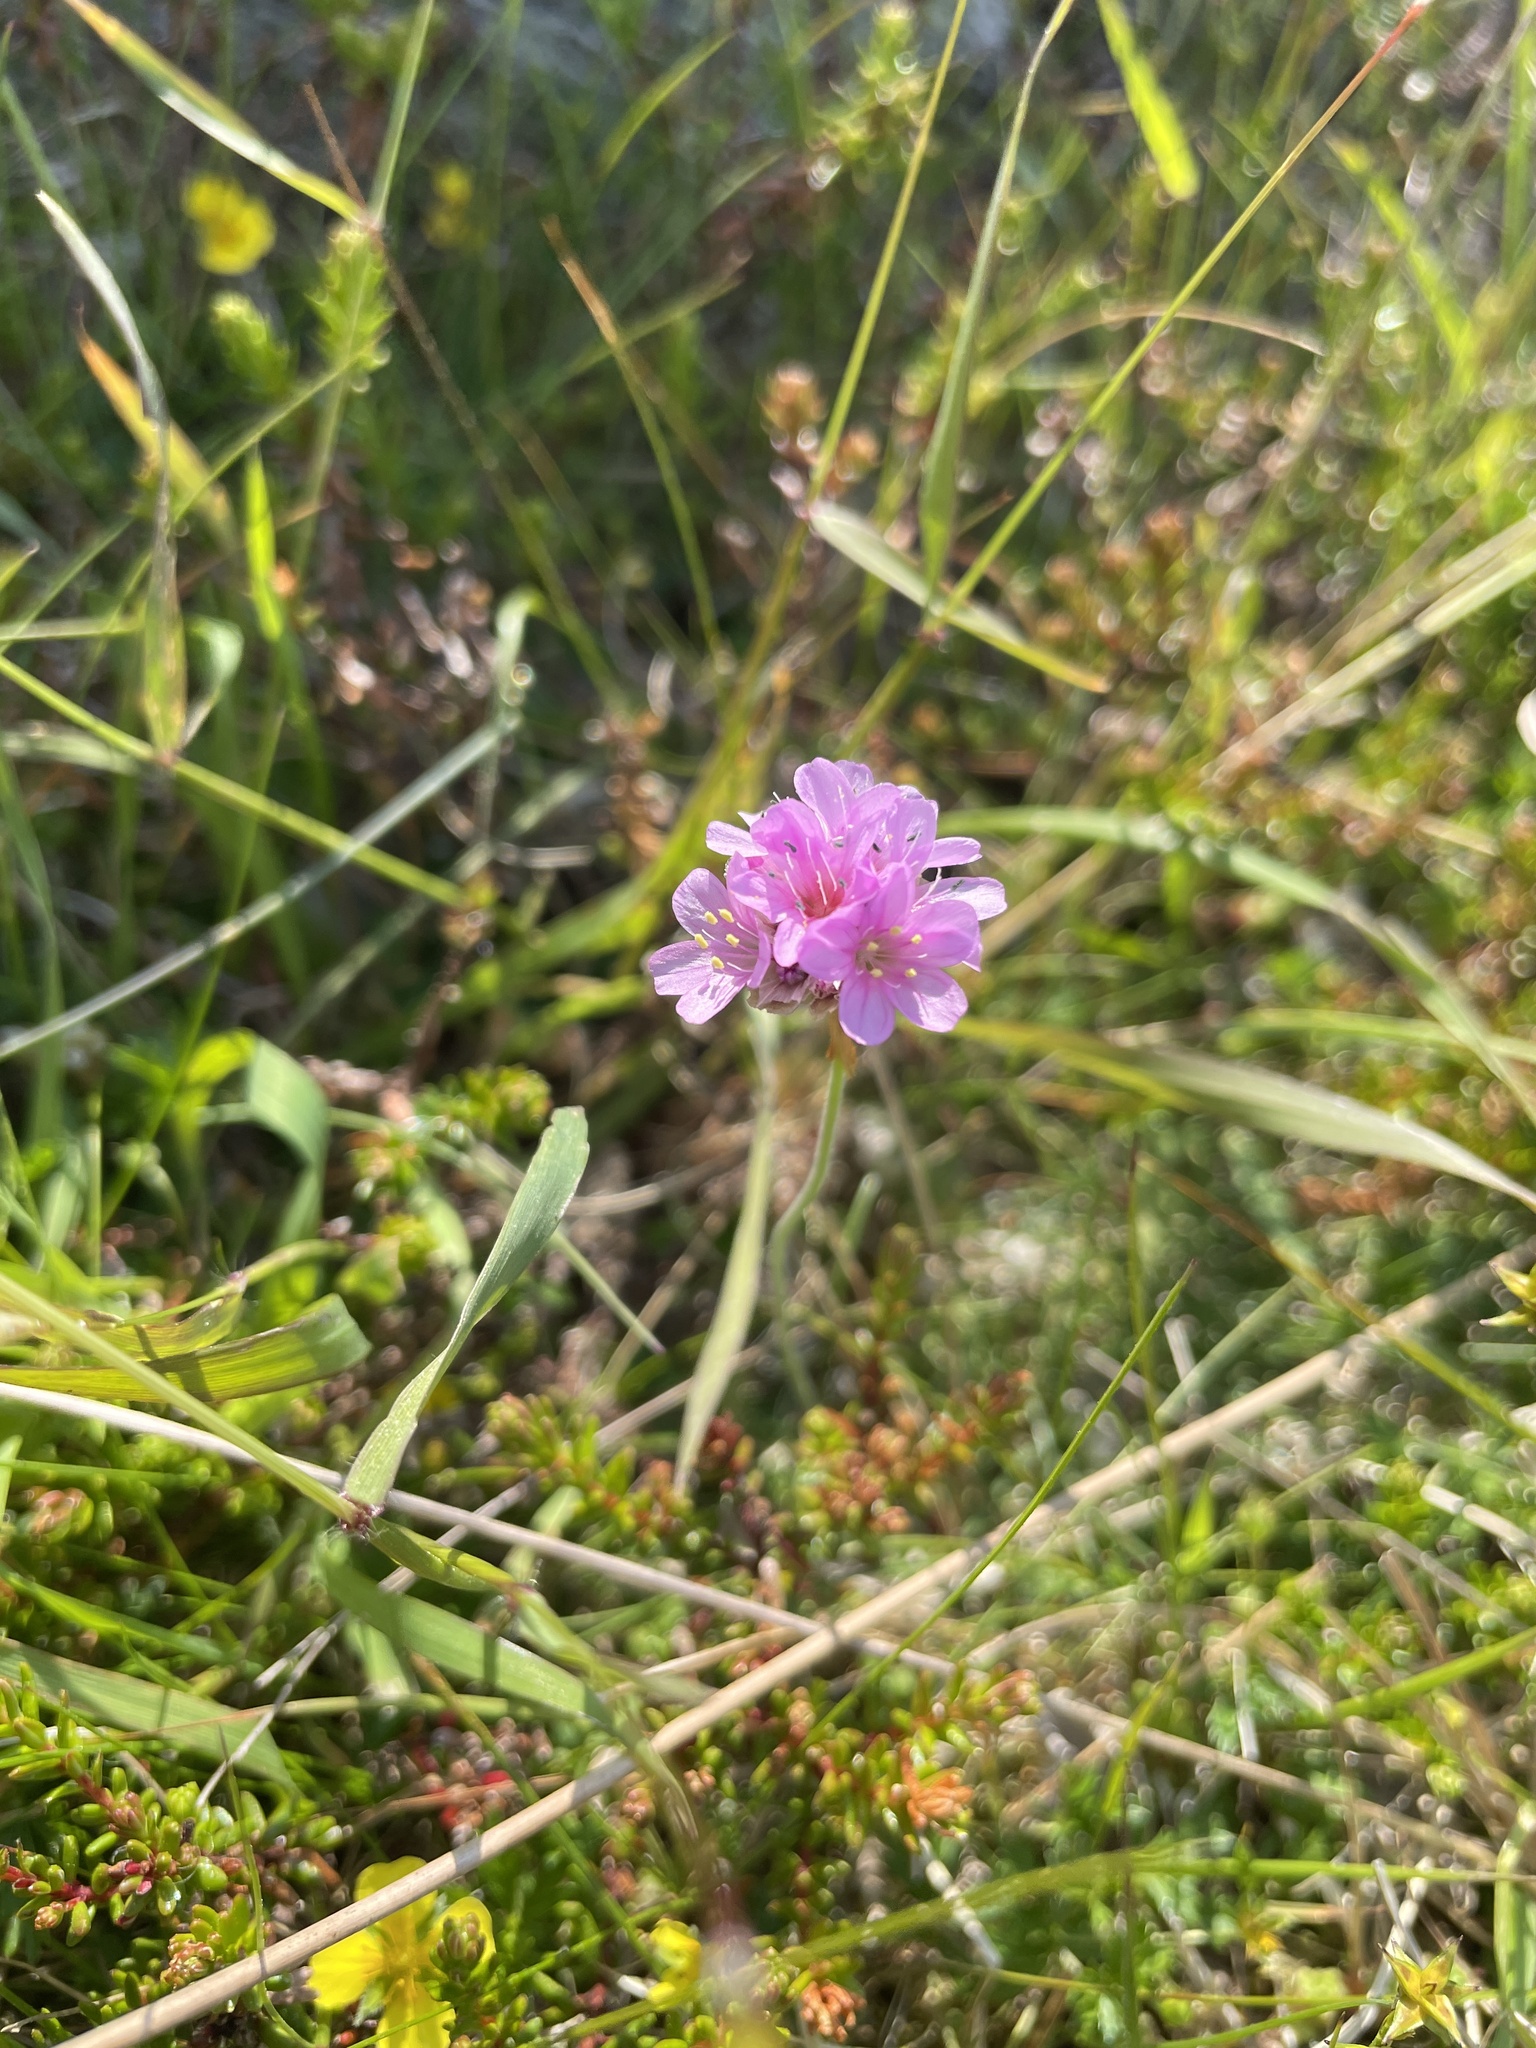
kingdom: Plantae
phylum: Tracheophyta
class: Magnoliopsida
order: Caryophyllales
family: Plumbaginaceae
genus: Armeria
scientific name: Armeria maritima
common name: Thrift
